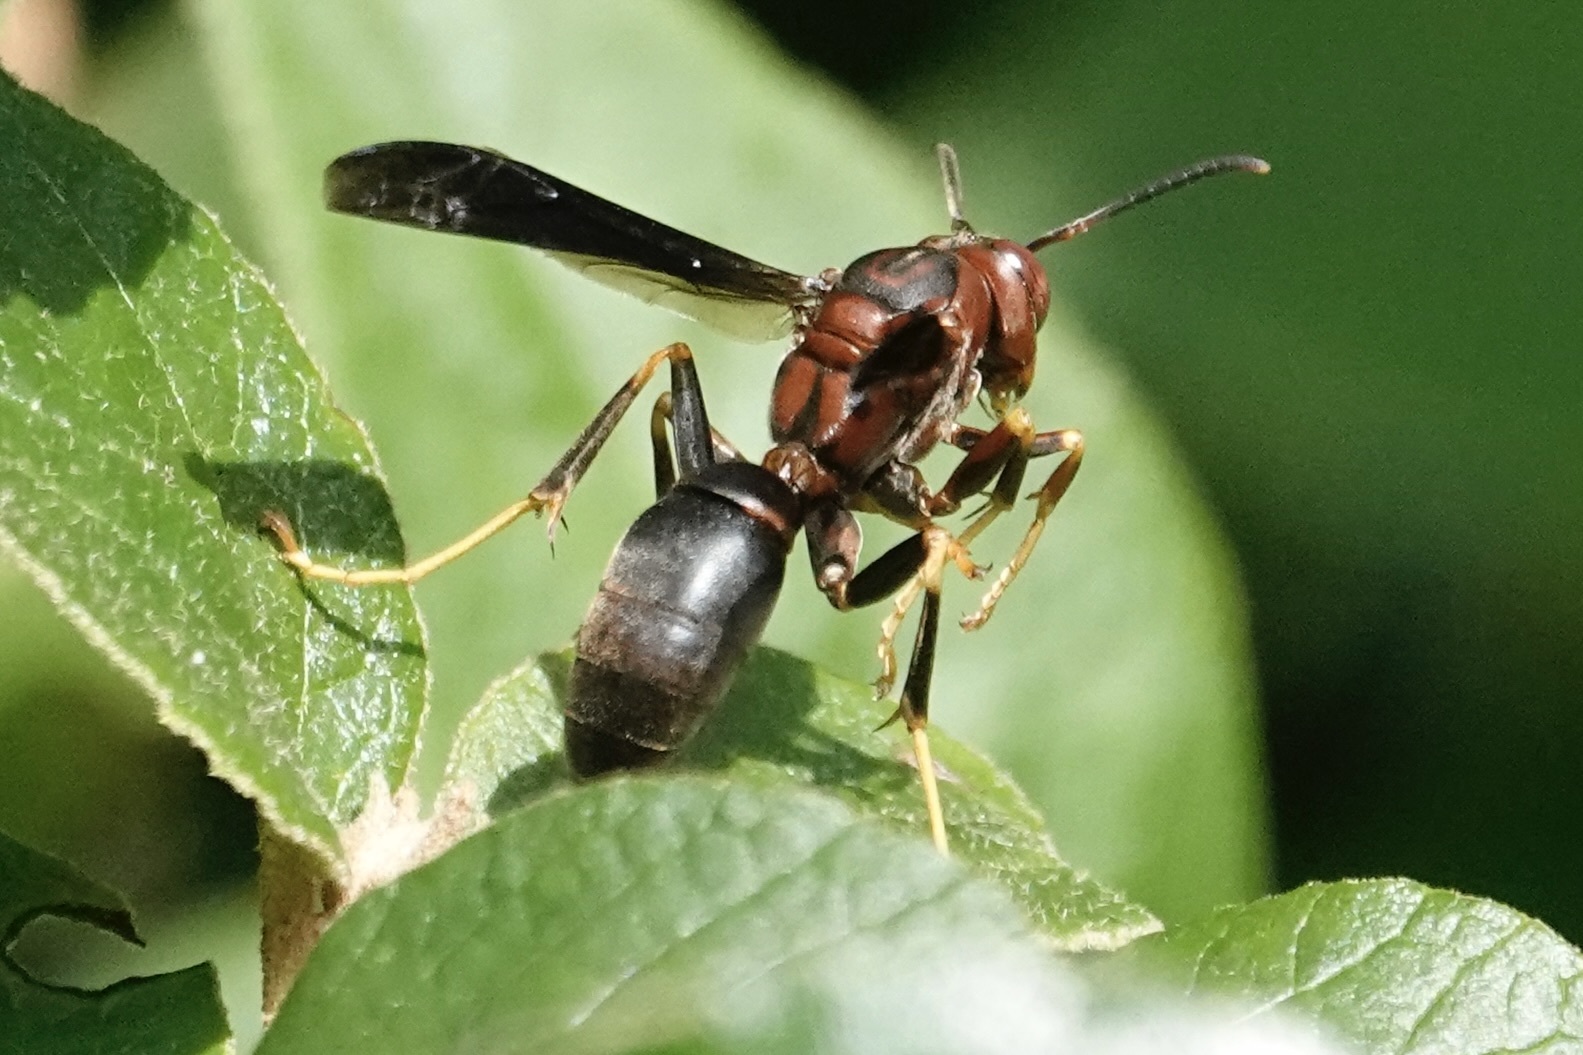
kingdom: Animalia
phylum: Arthropoda
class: Insecta
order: Hymenoptera
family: Eumenidae
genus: Polistes
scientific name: Polistes metricus
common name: Metric paper wasp
